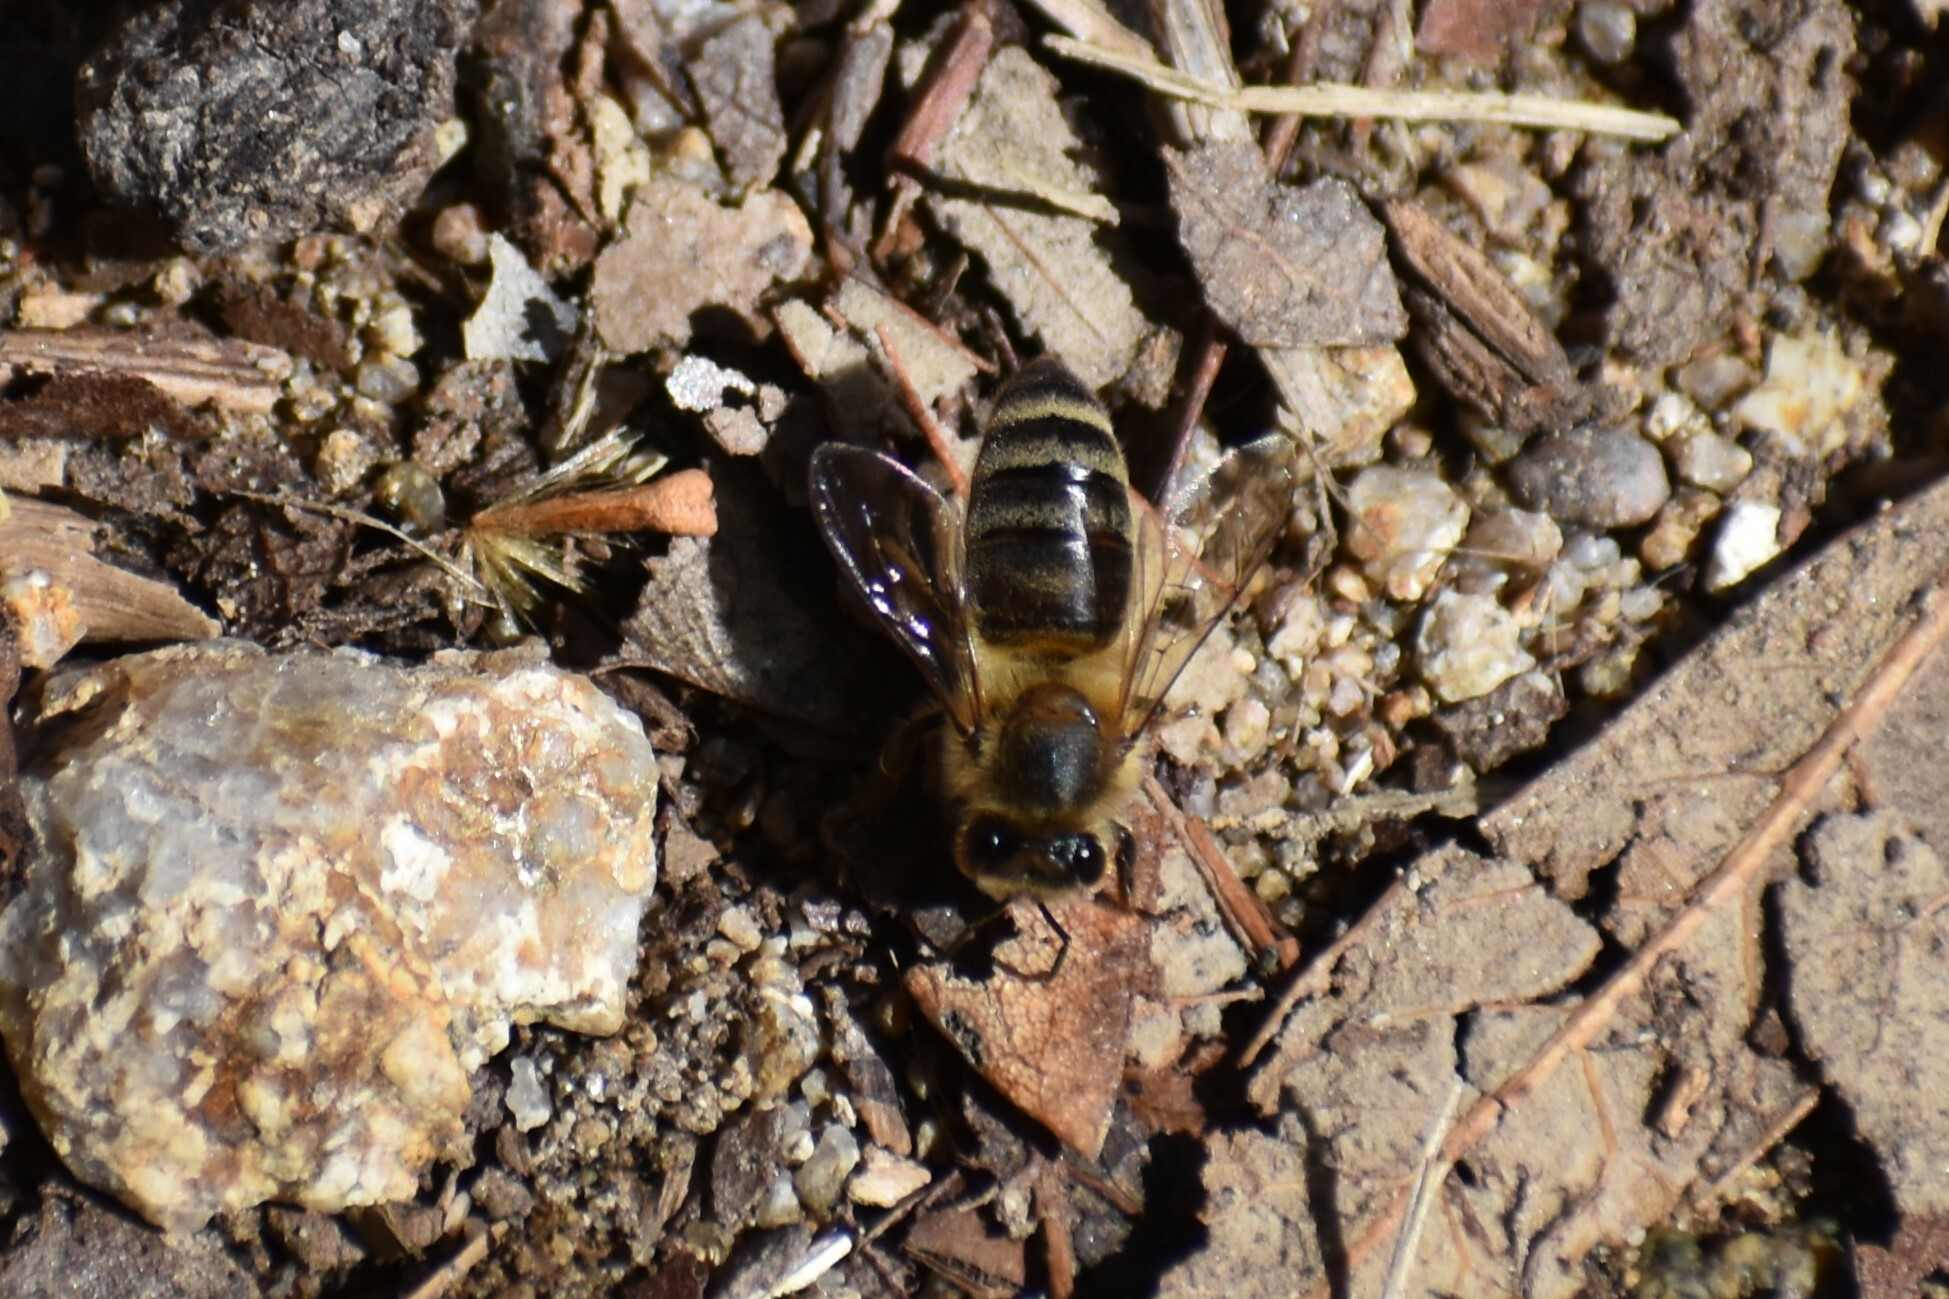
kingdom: Animalia
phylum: Arthropoda
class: Insecta
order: Hymenoptera
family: Apidae
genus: Apis
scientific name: Apis mellifera
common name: Honey bee
